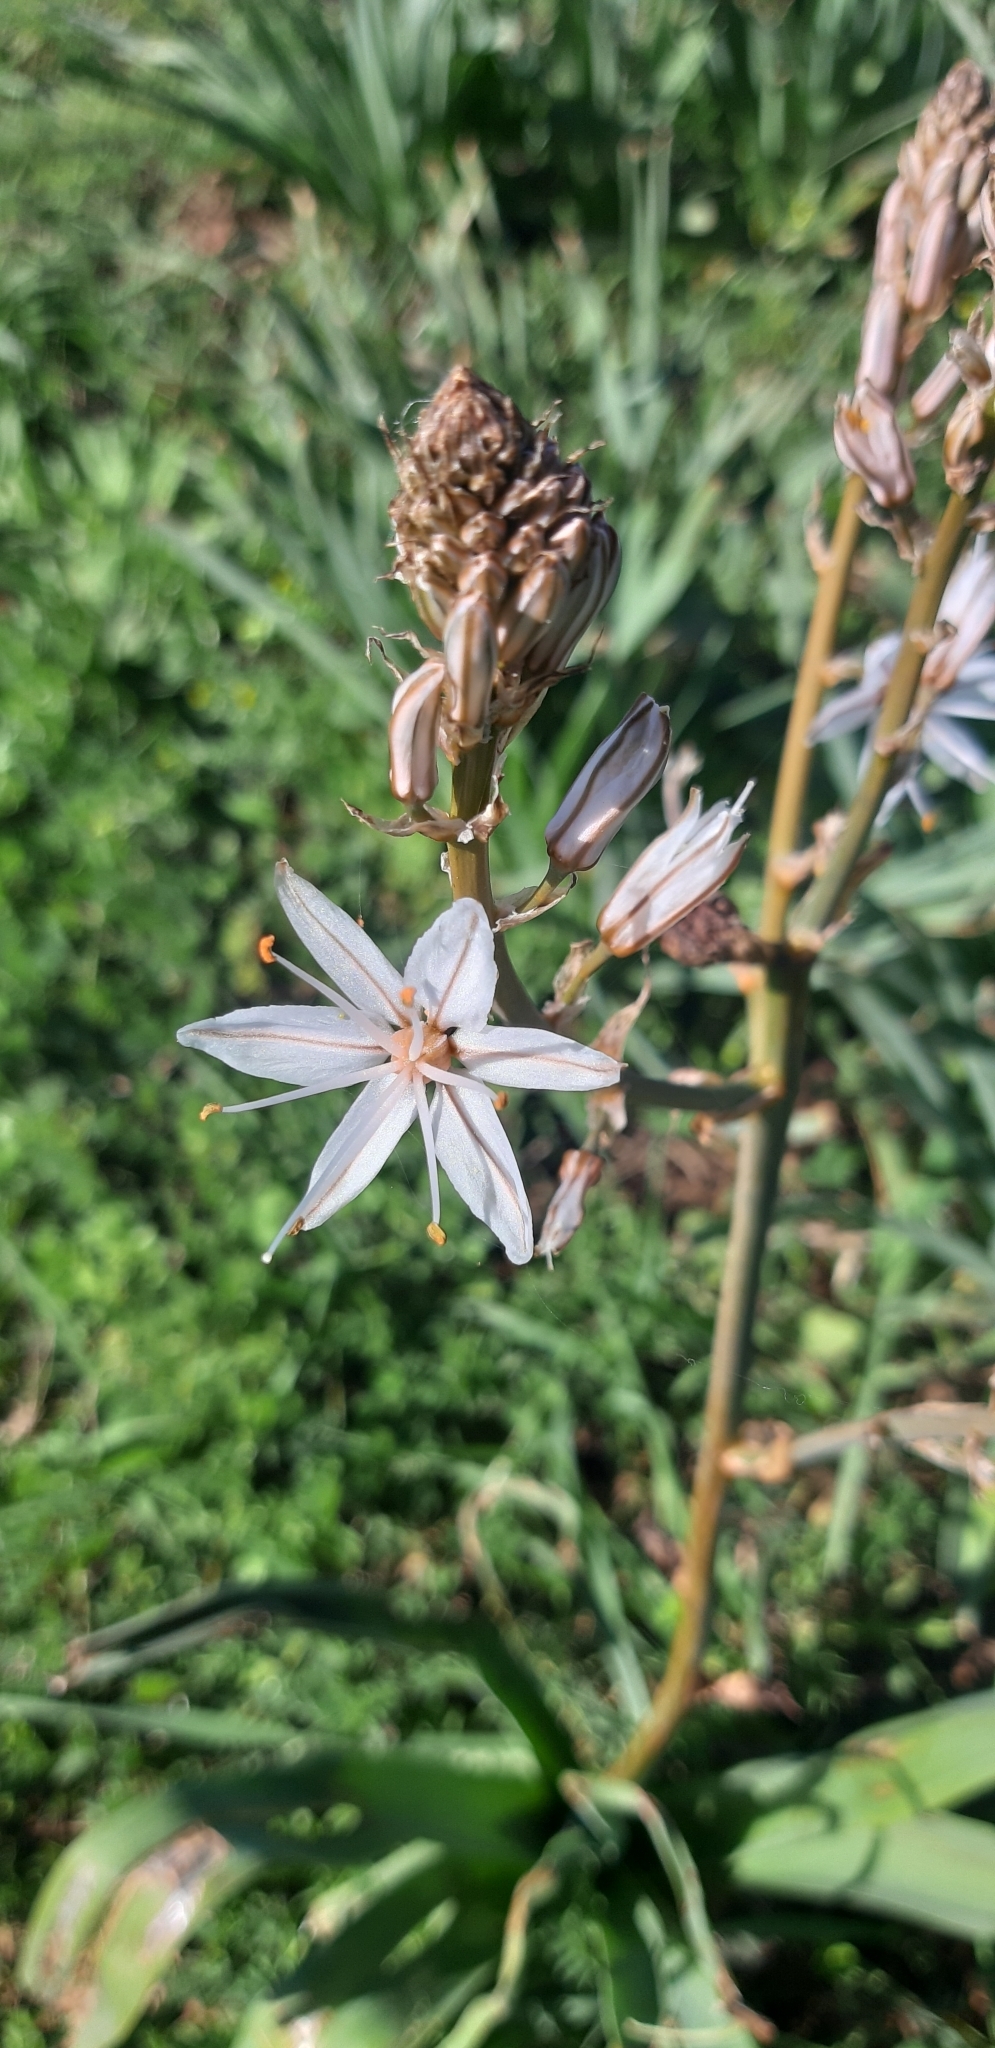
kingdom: Plantae
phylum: Tracheophyta
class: Liliopsida
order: Asparagales
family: Asphodelaceae
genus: Asphodelus
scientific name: Asphodelus ramosus
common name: Silverrod
